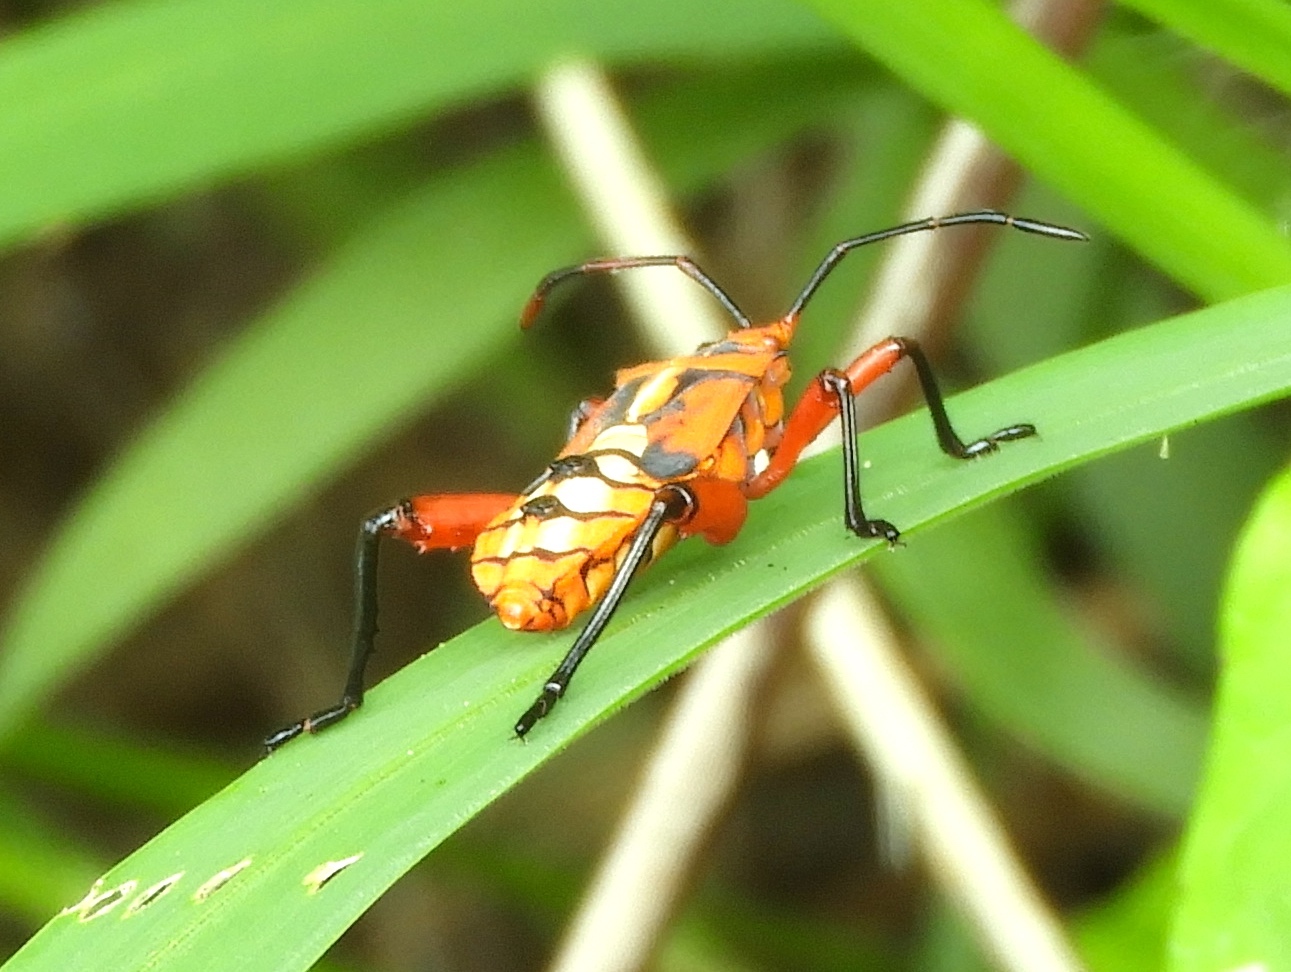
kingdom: Animalia
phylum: Arthropoda
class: Insecta
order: Hemiptera
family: Coreidae
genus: Sagotylus
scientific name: Sagotylus confluens
